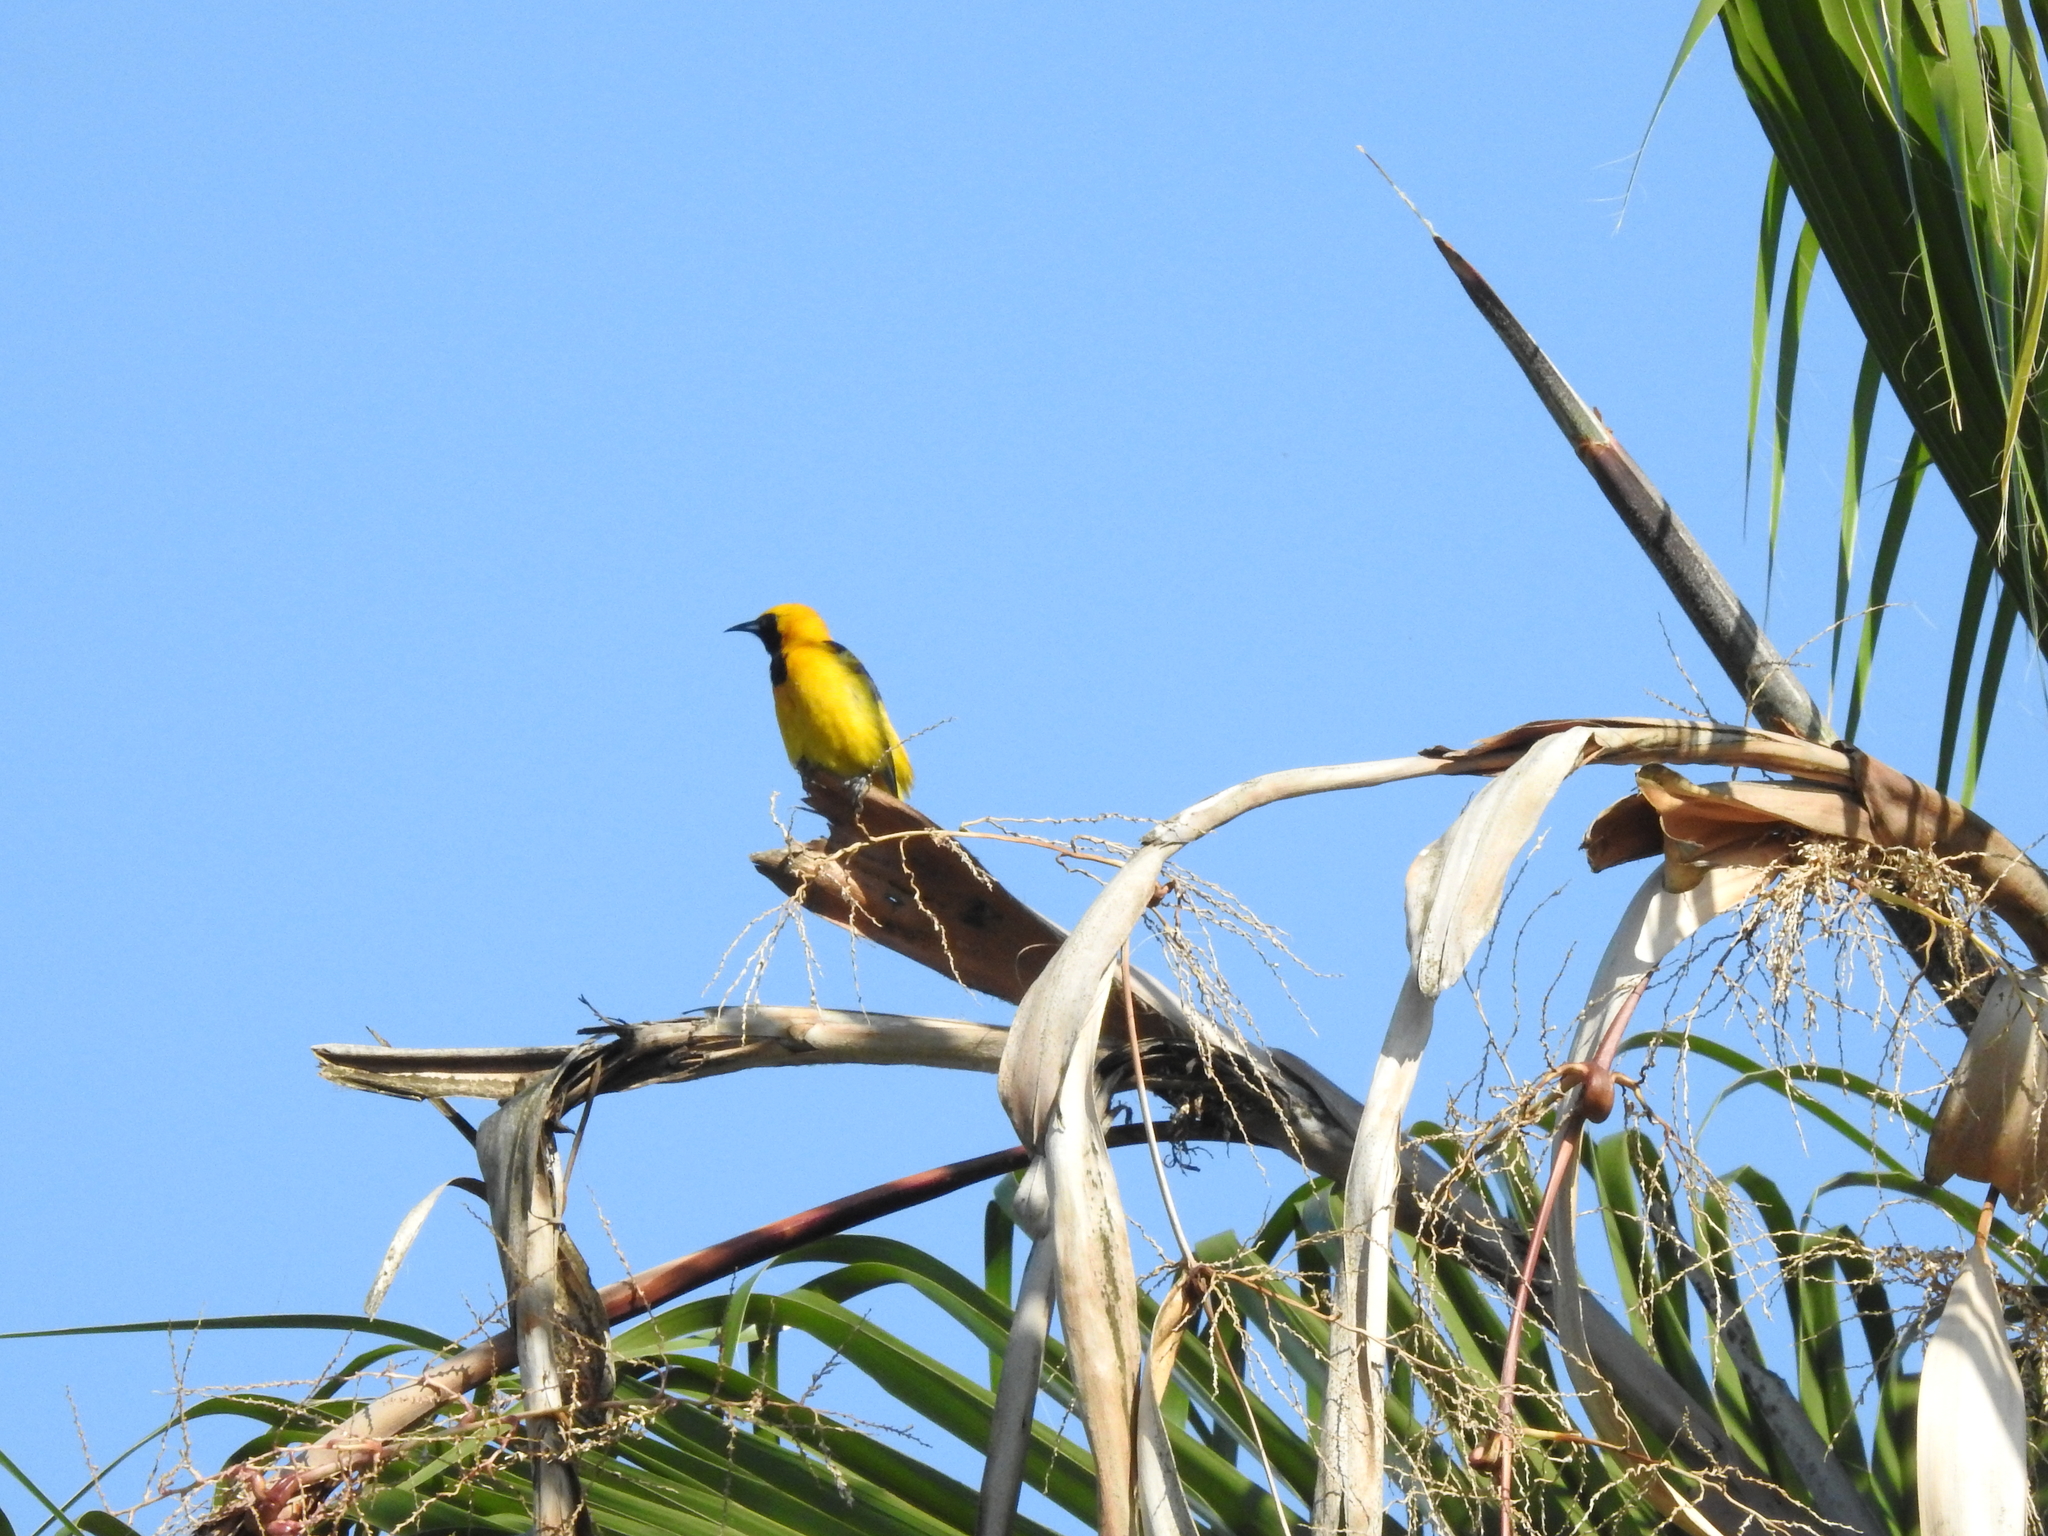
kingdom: Animalia
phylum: Chordata
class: Aves
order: Passeriformes
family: Icteridae
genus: Icterus
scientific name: Icterus cucullatus
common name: Hooded oriole
